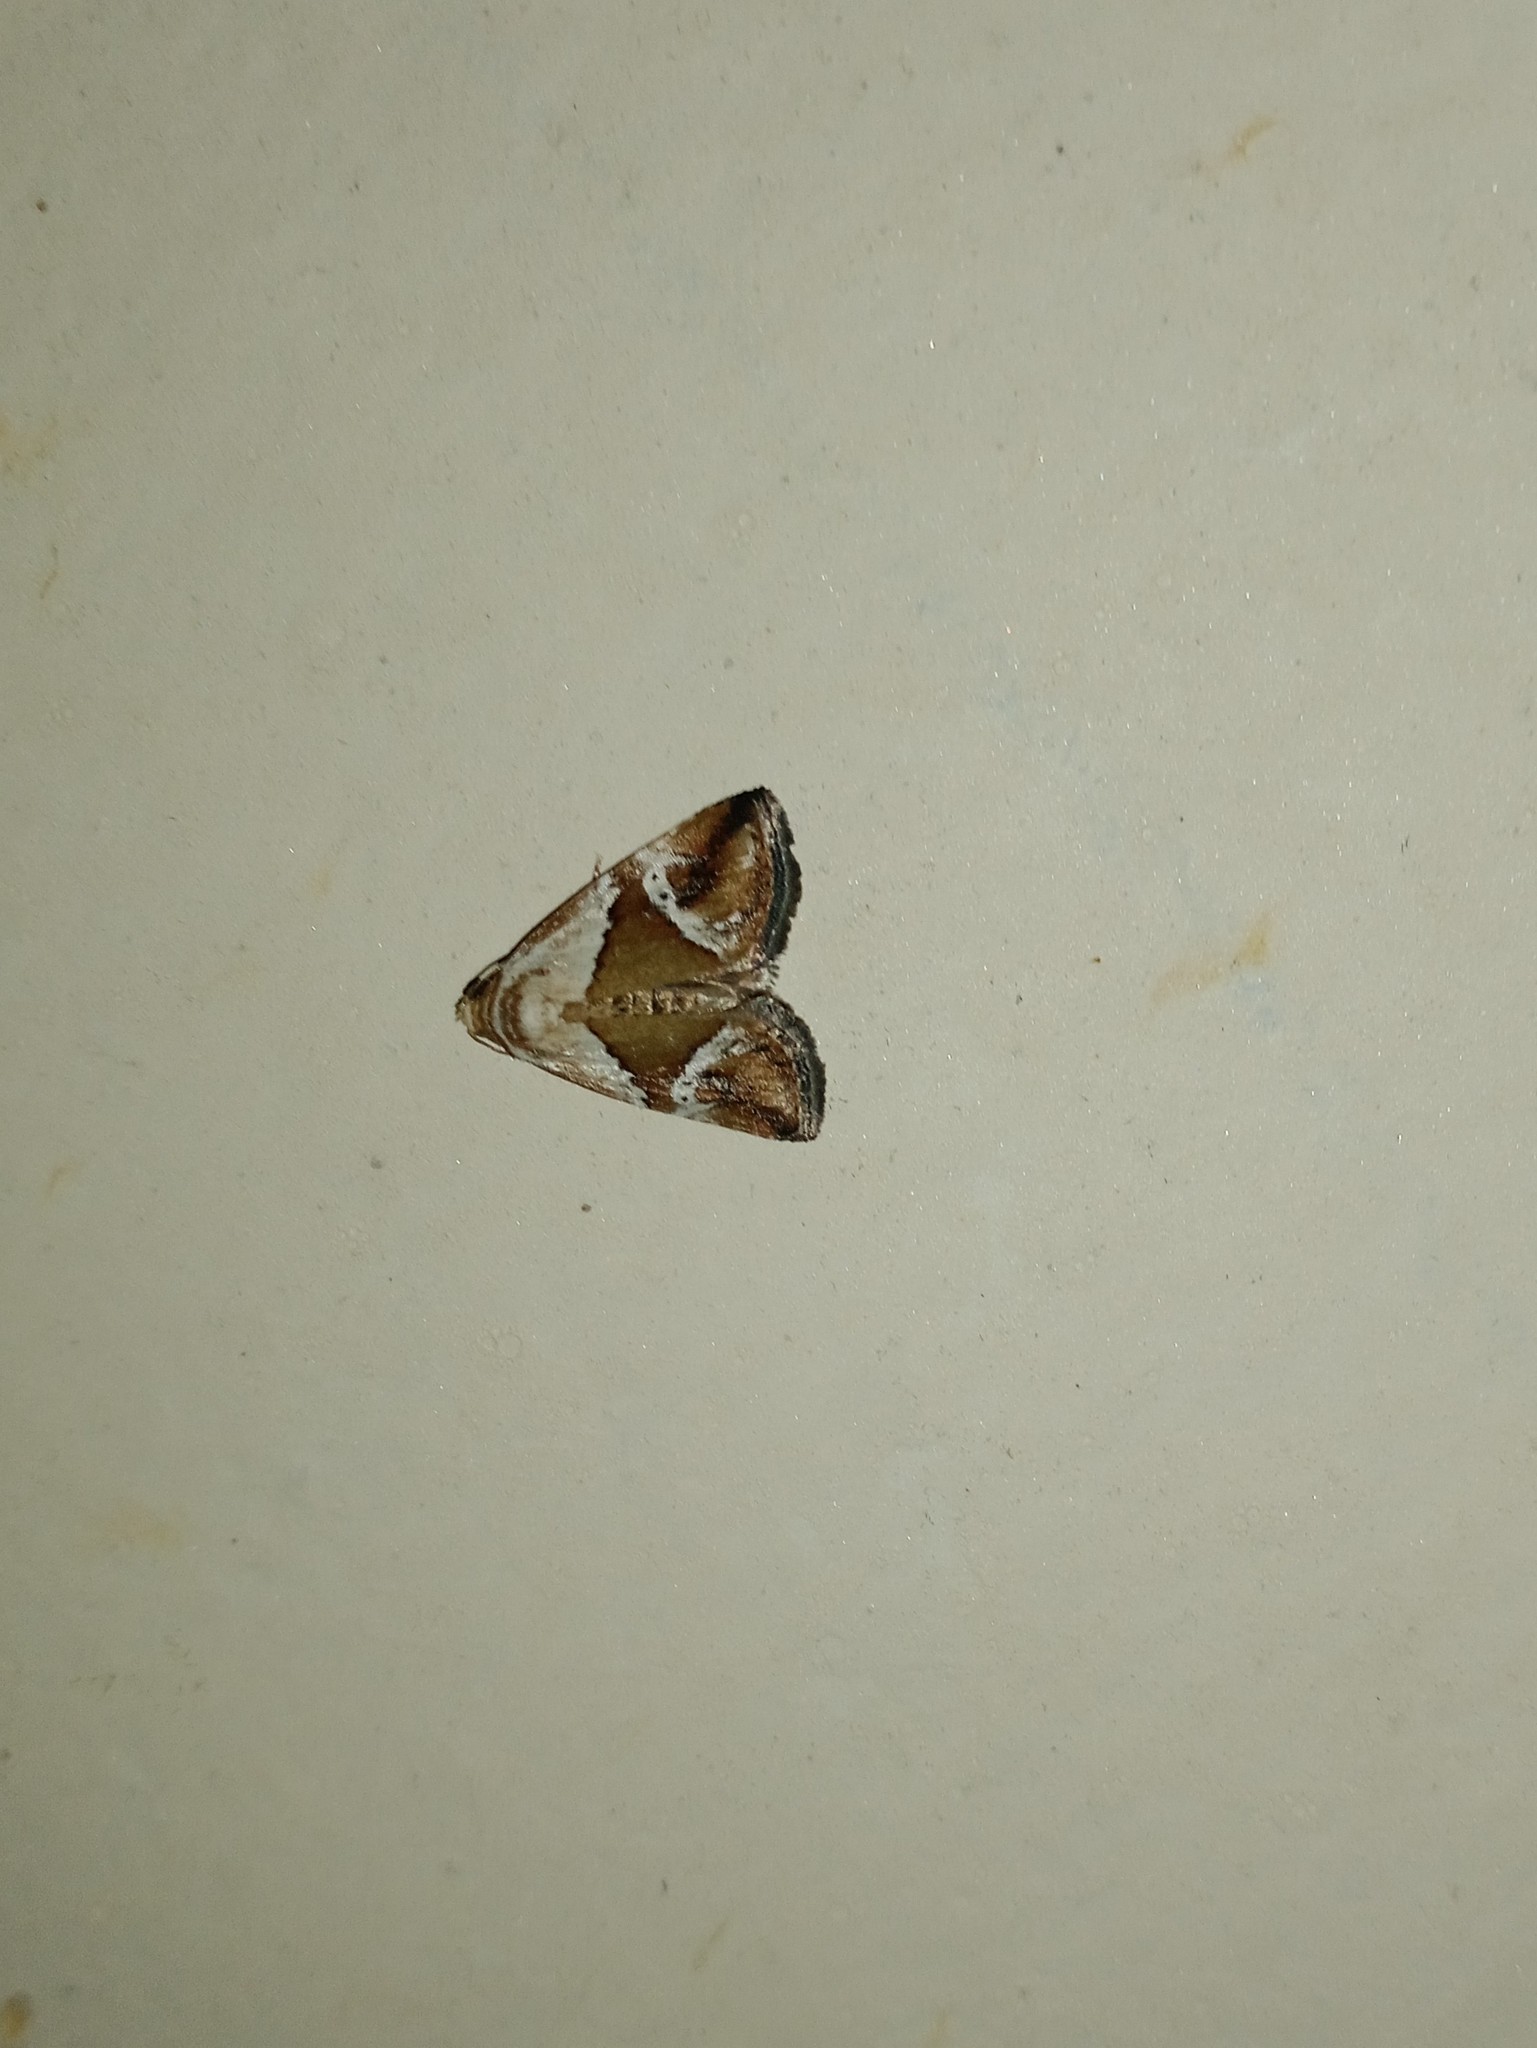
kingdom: Animalia
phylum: Arthropoda
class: Insecta
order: Lepidoptera
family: Noctuidae
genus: Maliattha
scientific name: Maliattha lativitta
